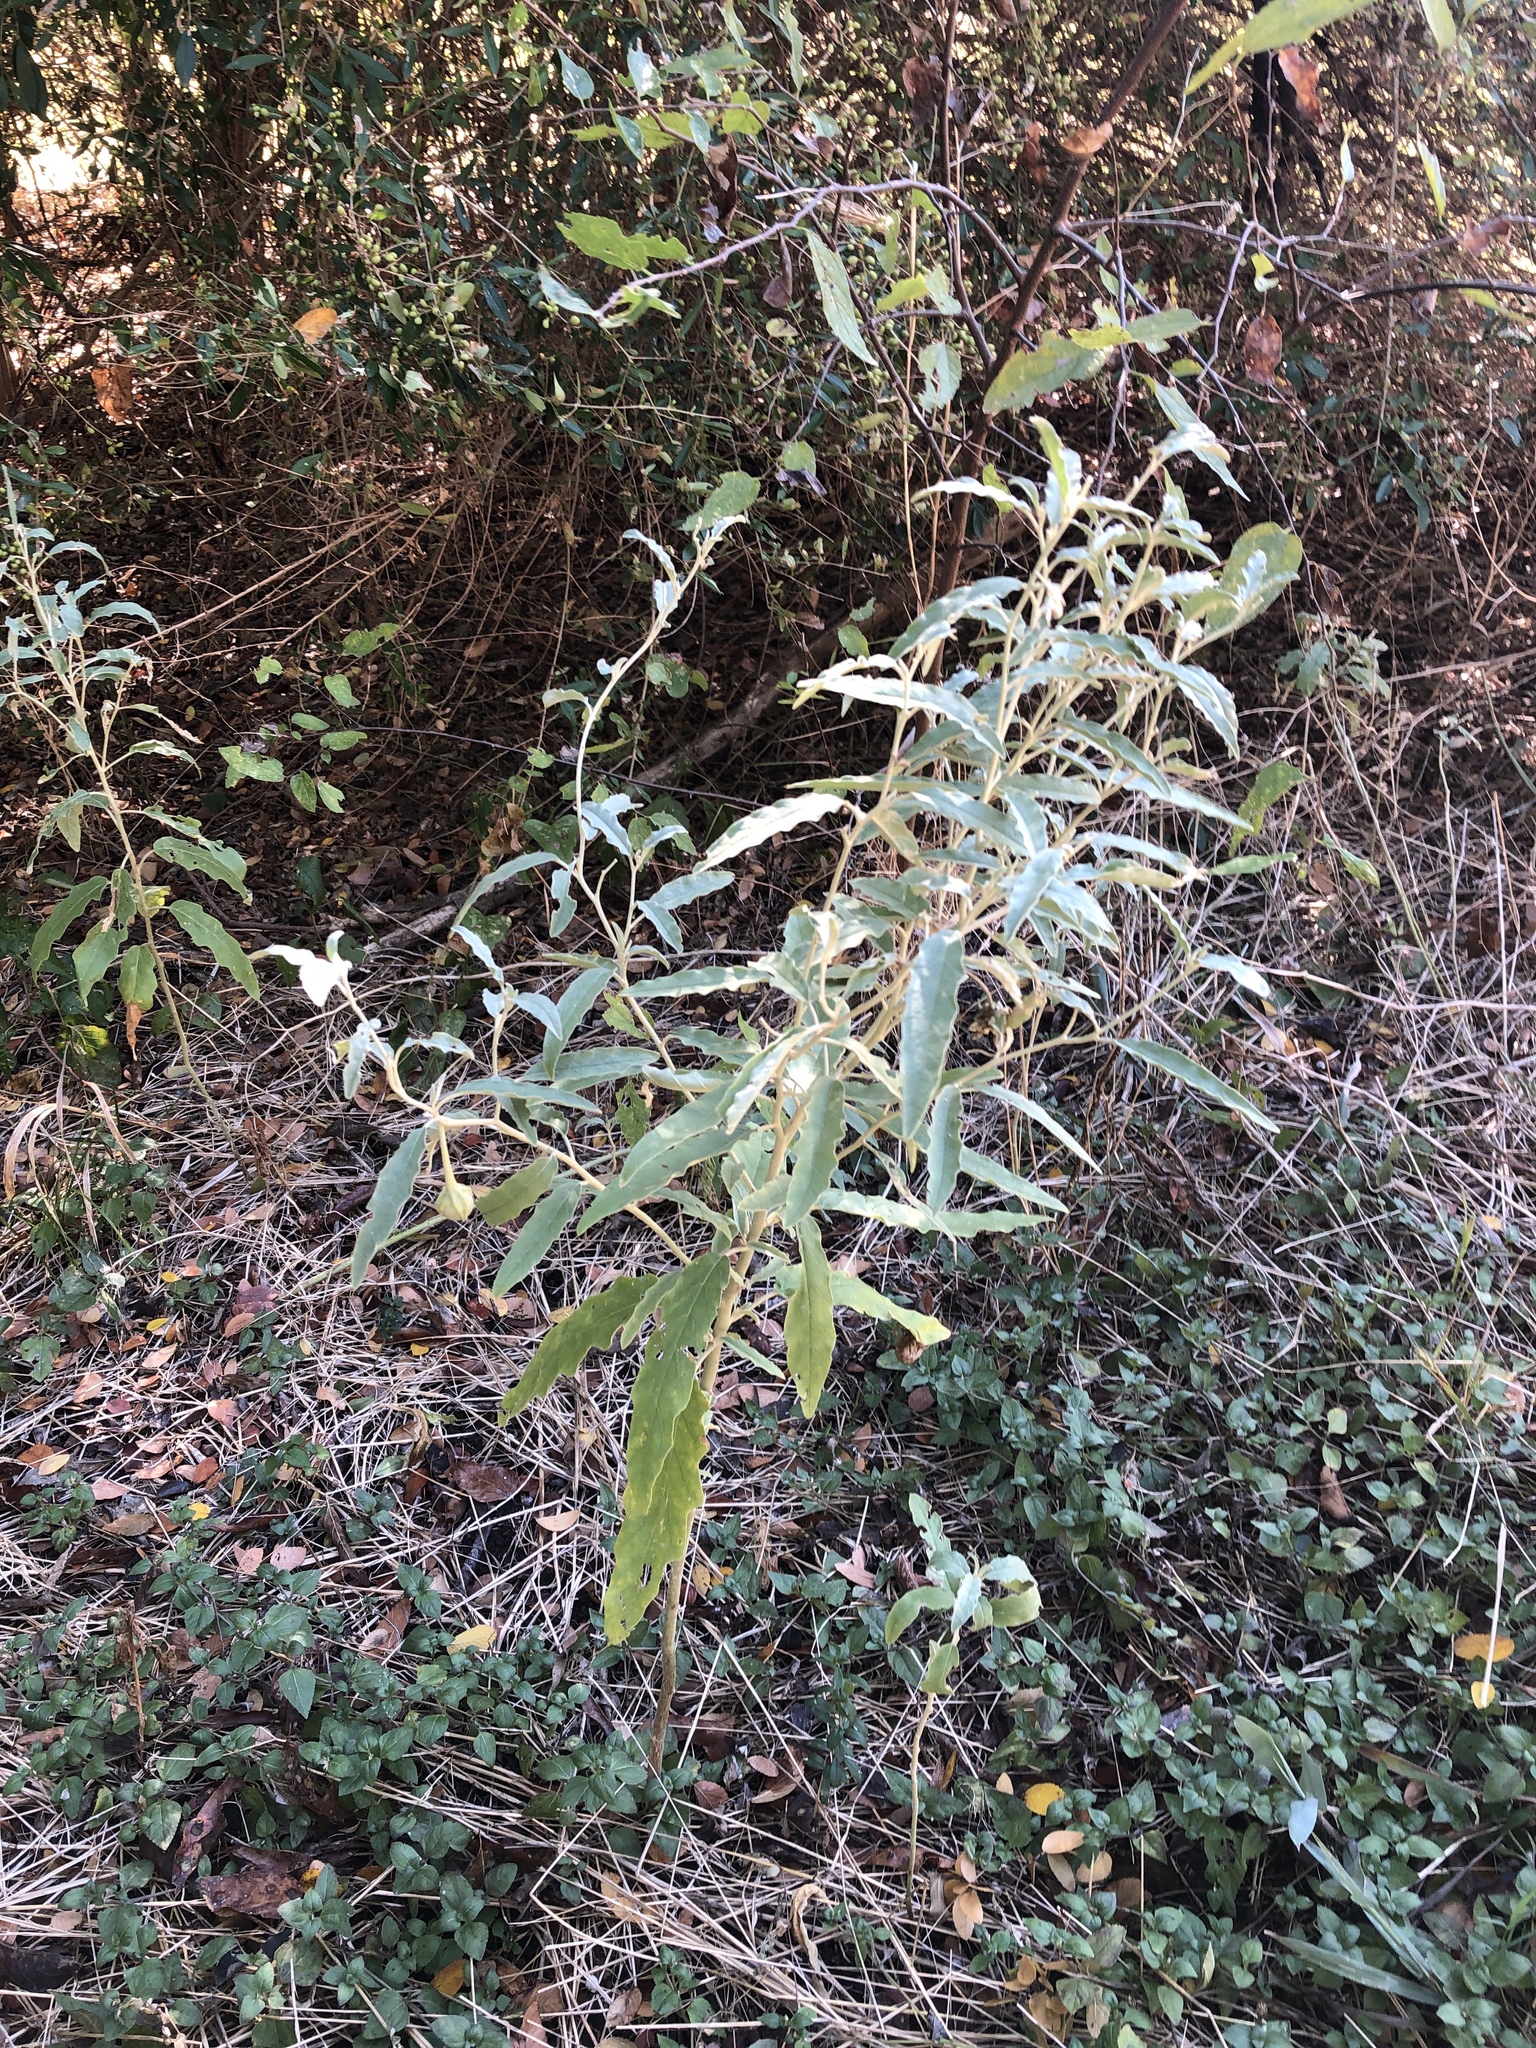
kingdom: Plantae
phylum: Tracheophyta
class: Magnoliopsida
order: Solanales
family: Solanaceae
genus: Solanum
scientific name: Solanum elaeagnifolium
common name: Silverleaf nightshade
